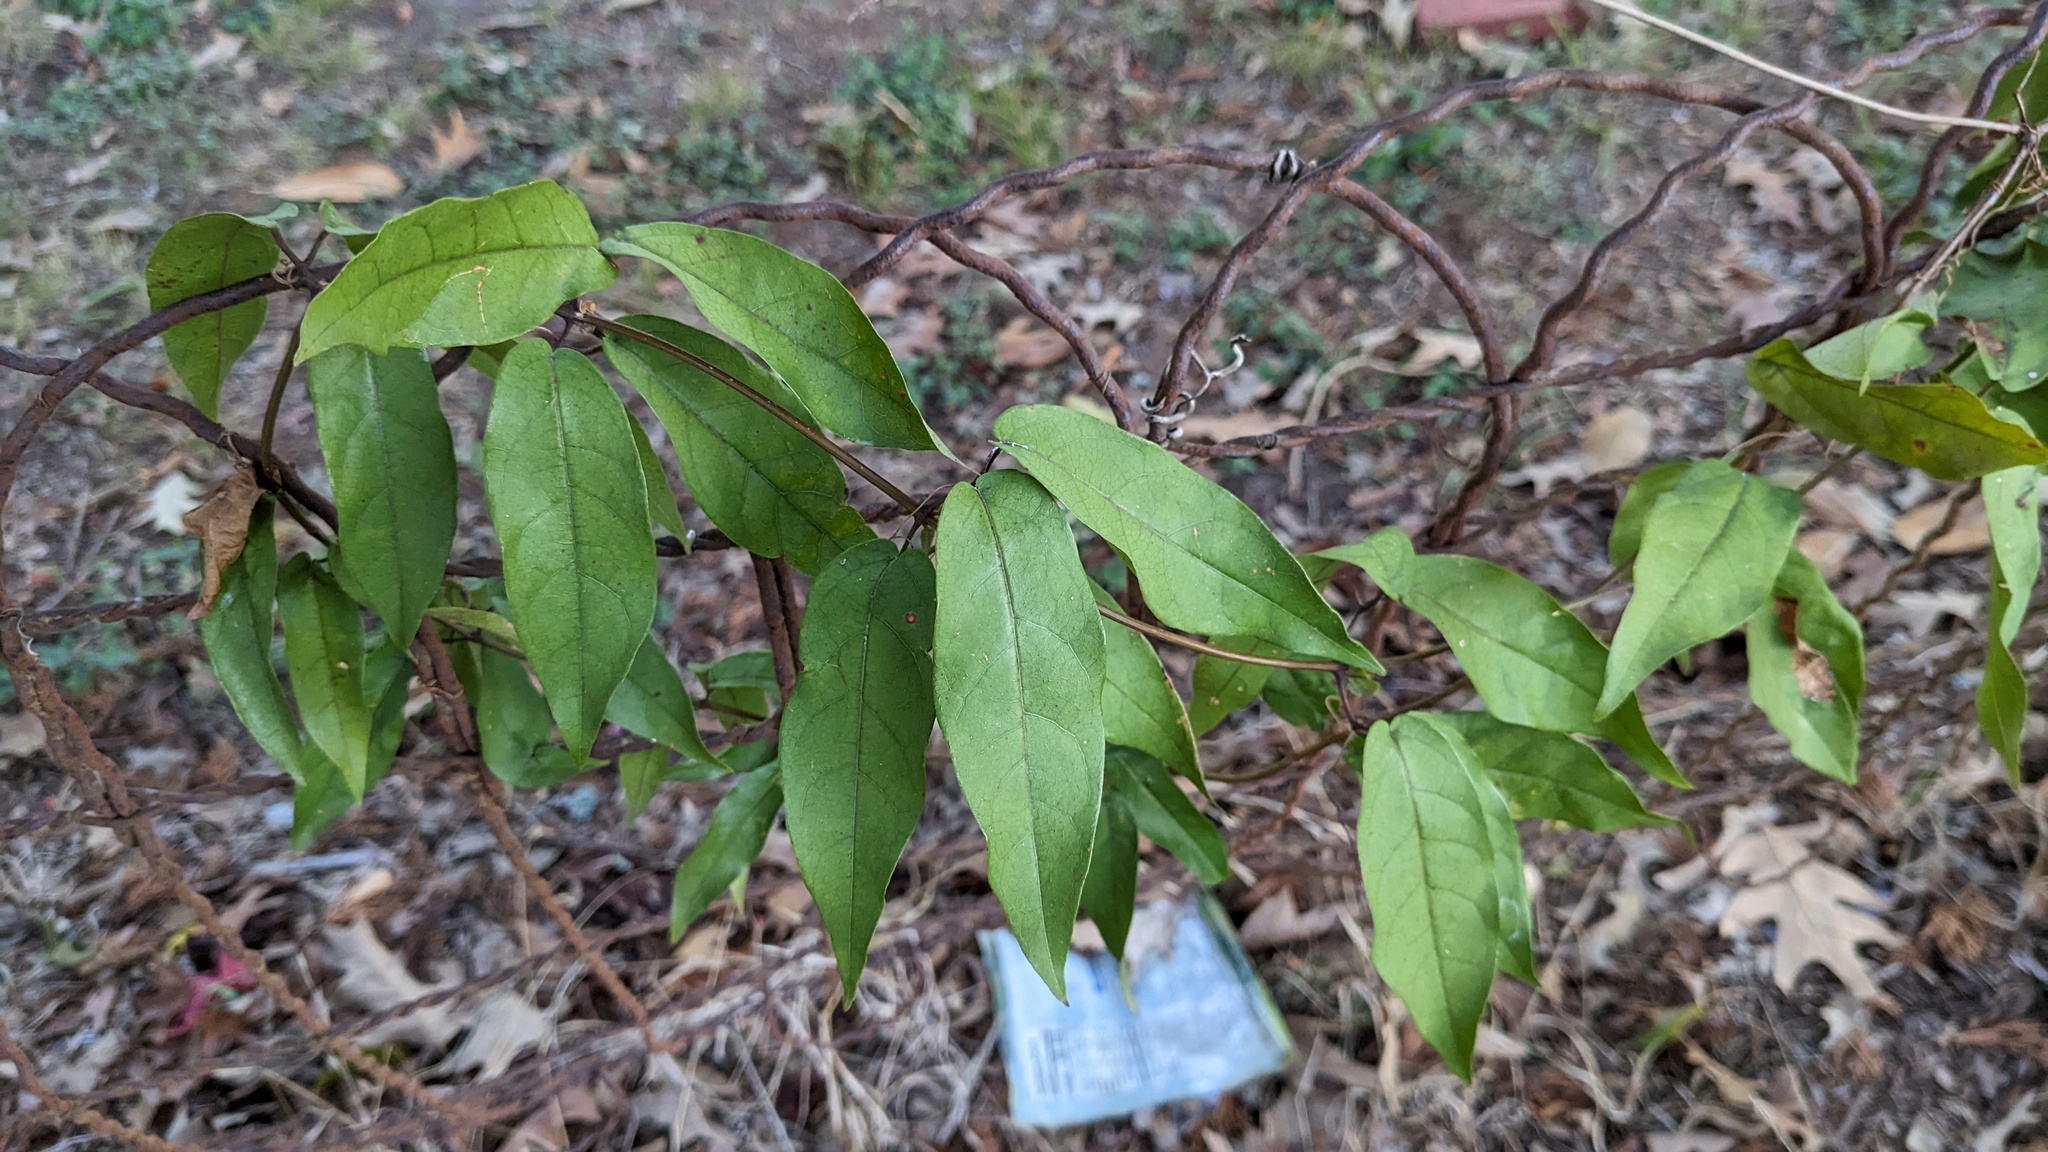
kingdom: Plantae
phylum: Tracheophyta
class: Magnoliopsida
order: Lamiales
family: Bignoniaceae
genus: Bignonia
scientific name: Bignonia capreolata
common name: Crossvine
